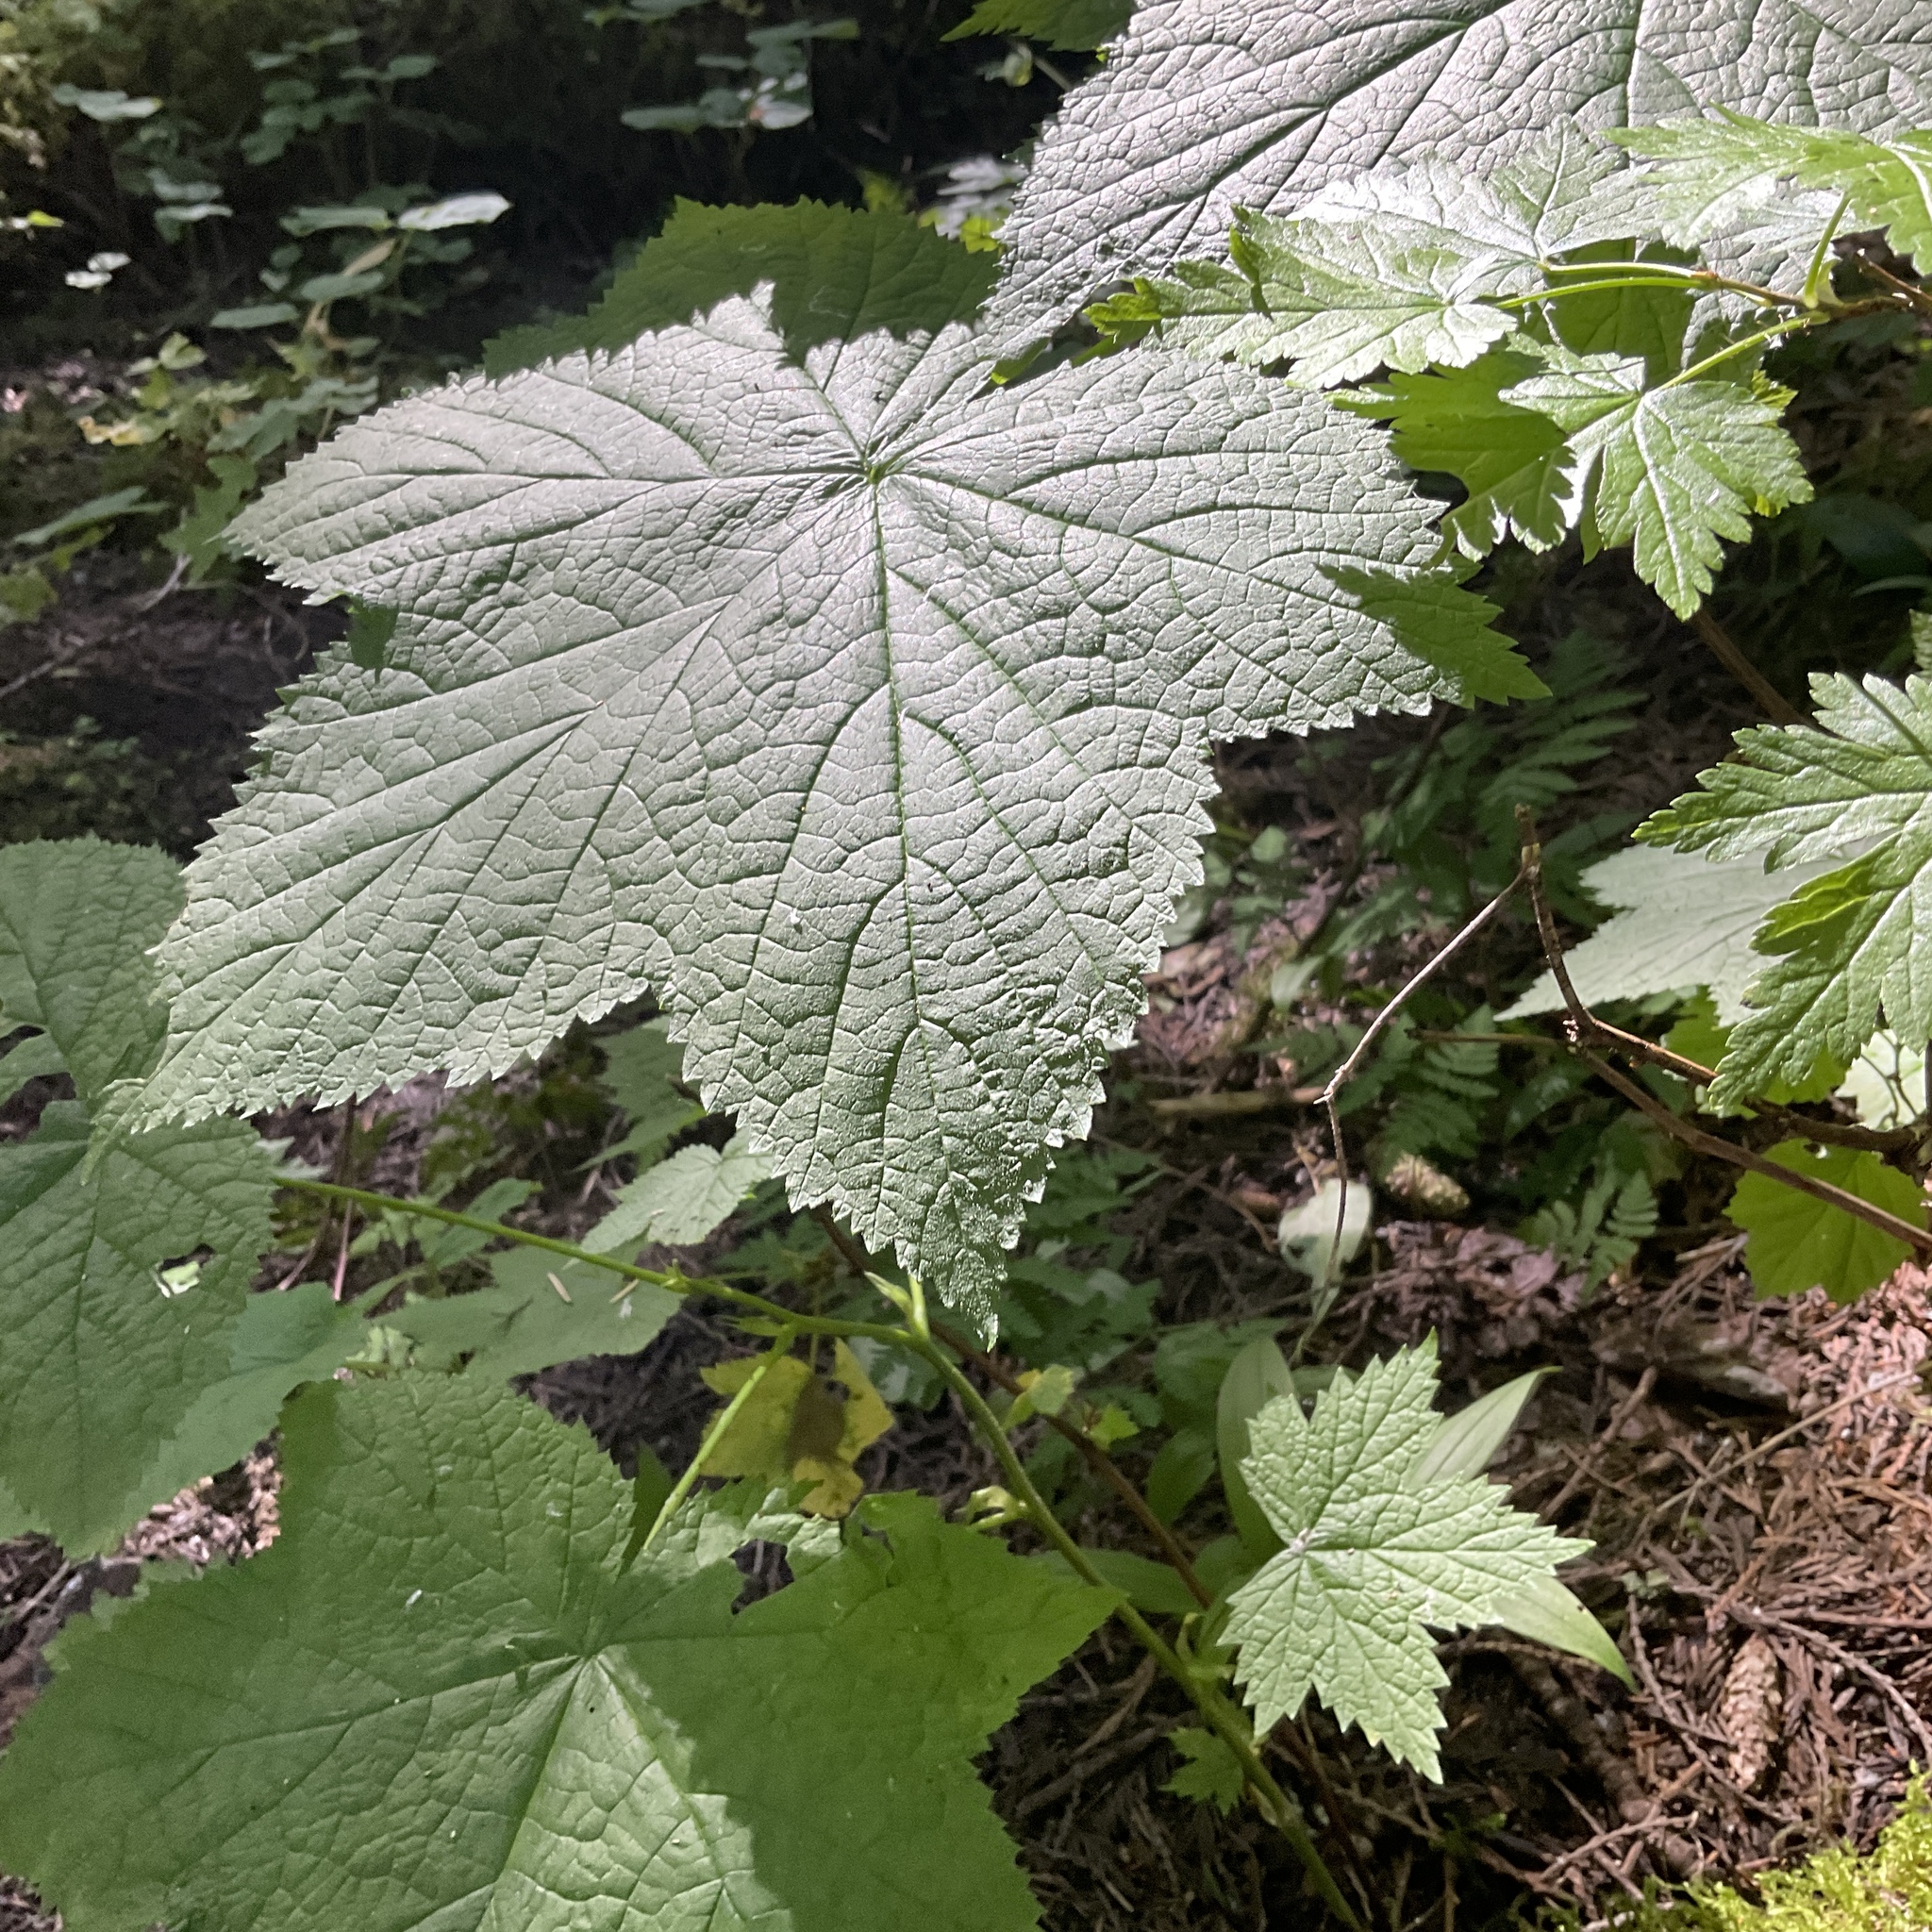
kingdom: Plantae
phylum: Tracheophyta
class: Magnoliopsida
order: Saxifragales
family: Grossulariaceae
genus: Ribes
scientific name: Ribes lacustre
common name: Black gooseberry
